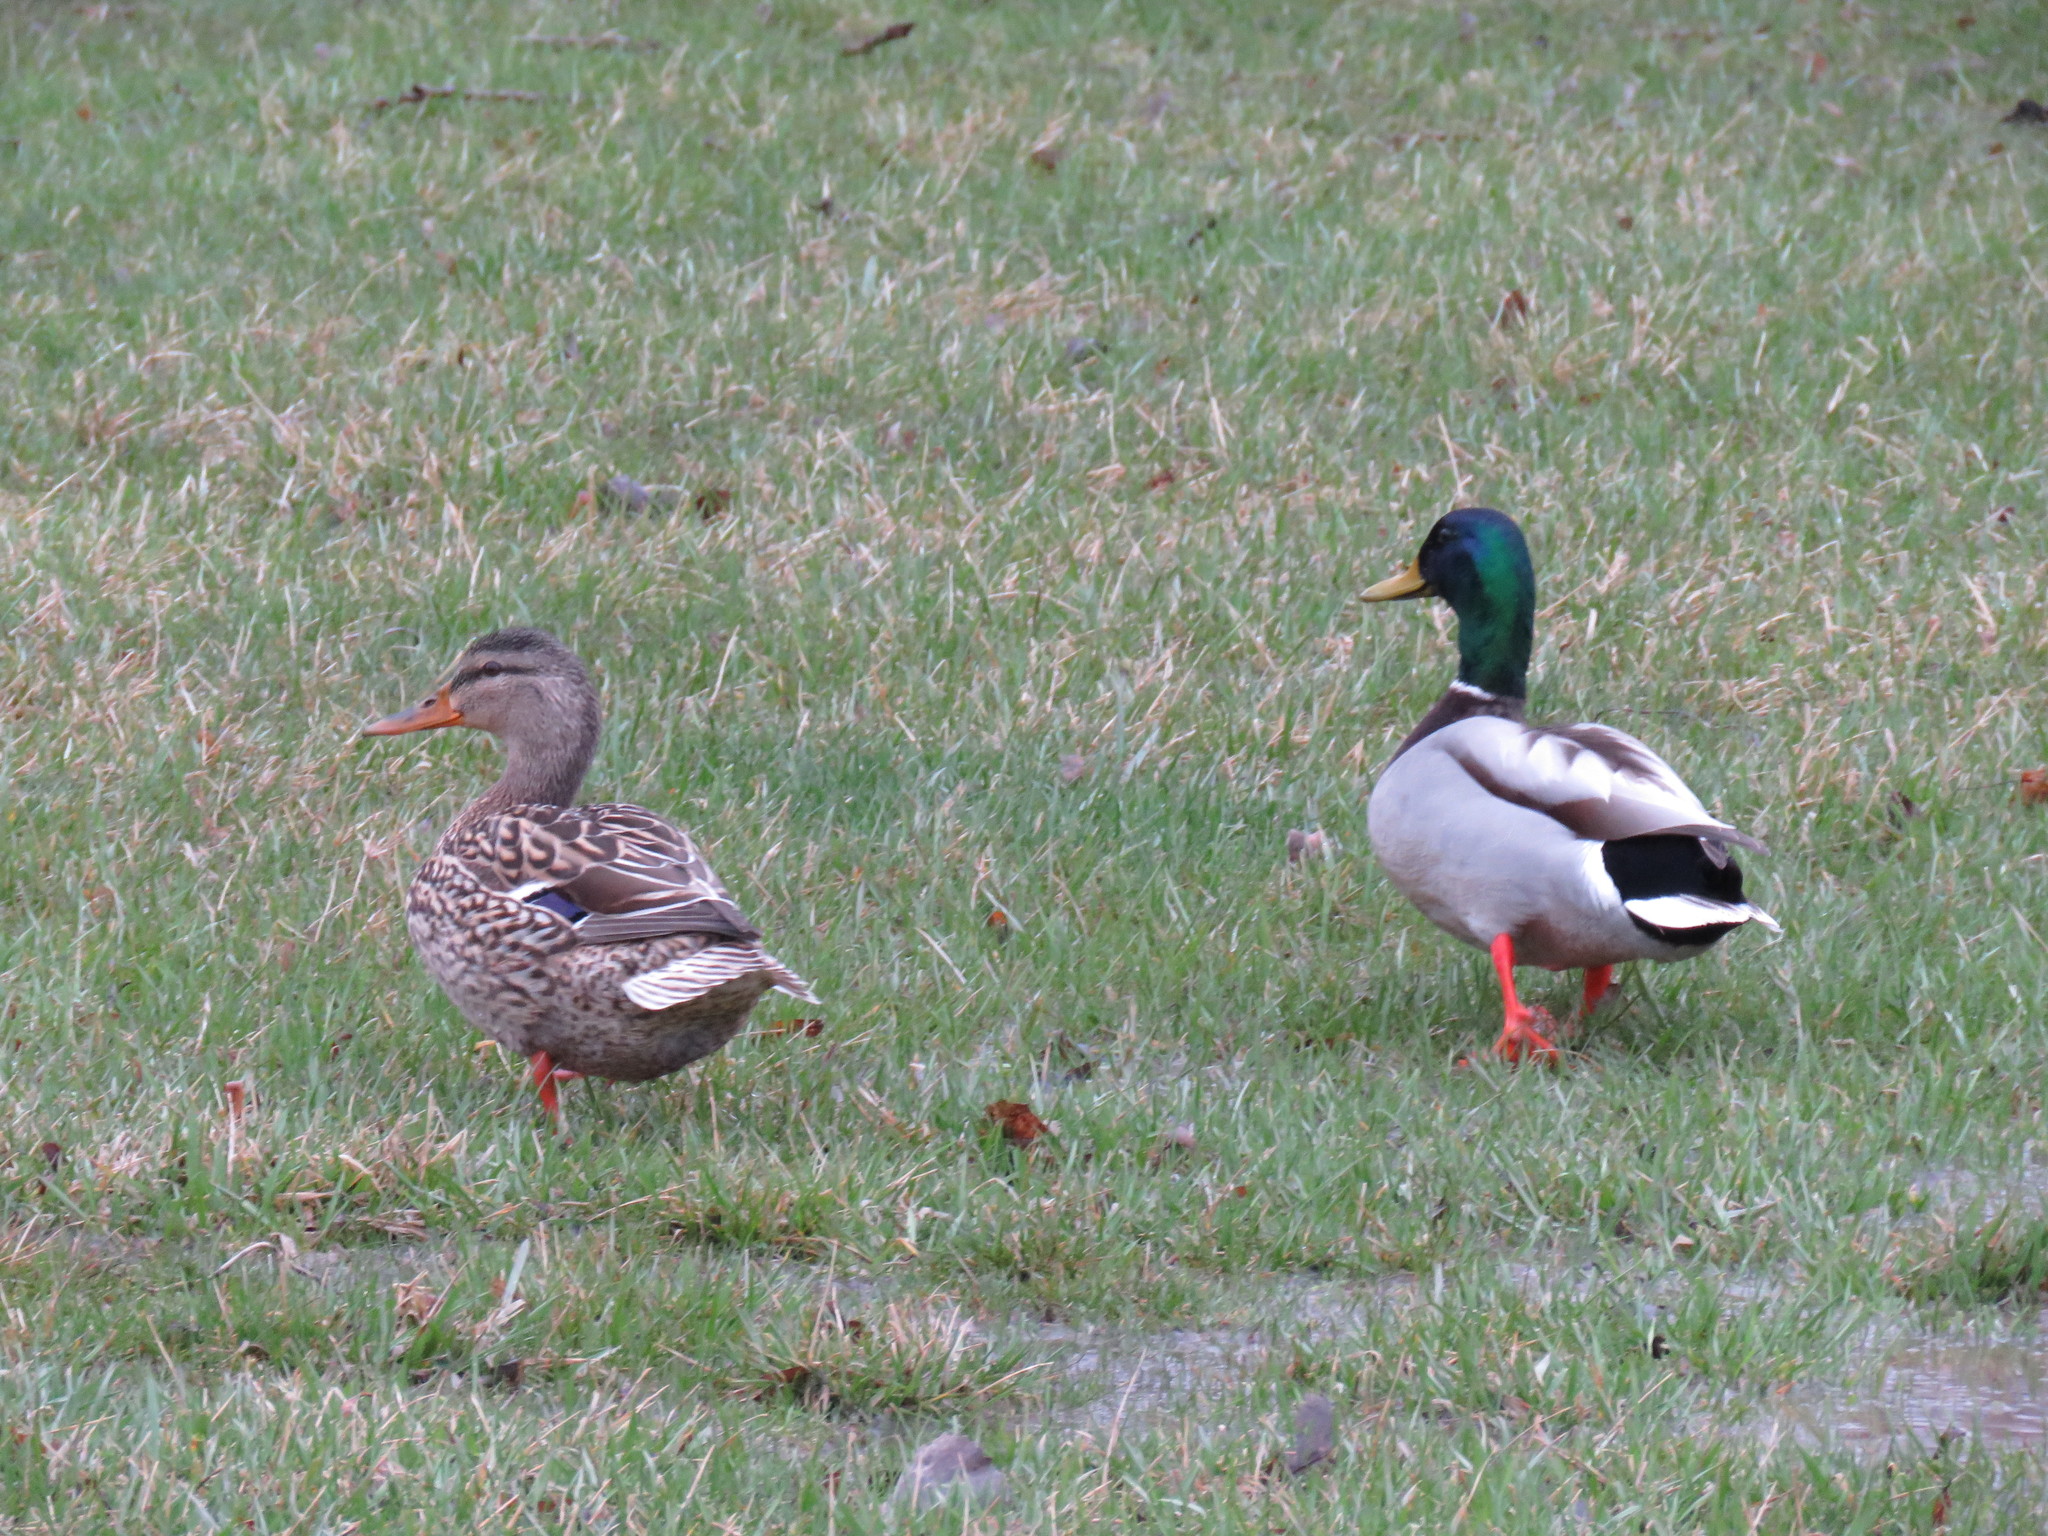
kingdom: Animalia
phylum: Chordata
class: Aves
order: Anseriformes
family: Anatidae
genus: Anas
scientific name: Anas platyrhynchos
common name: Mallard
